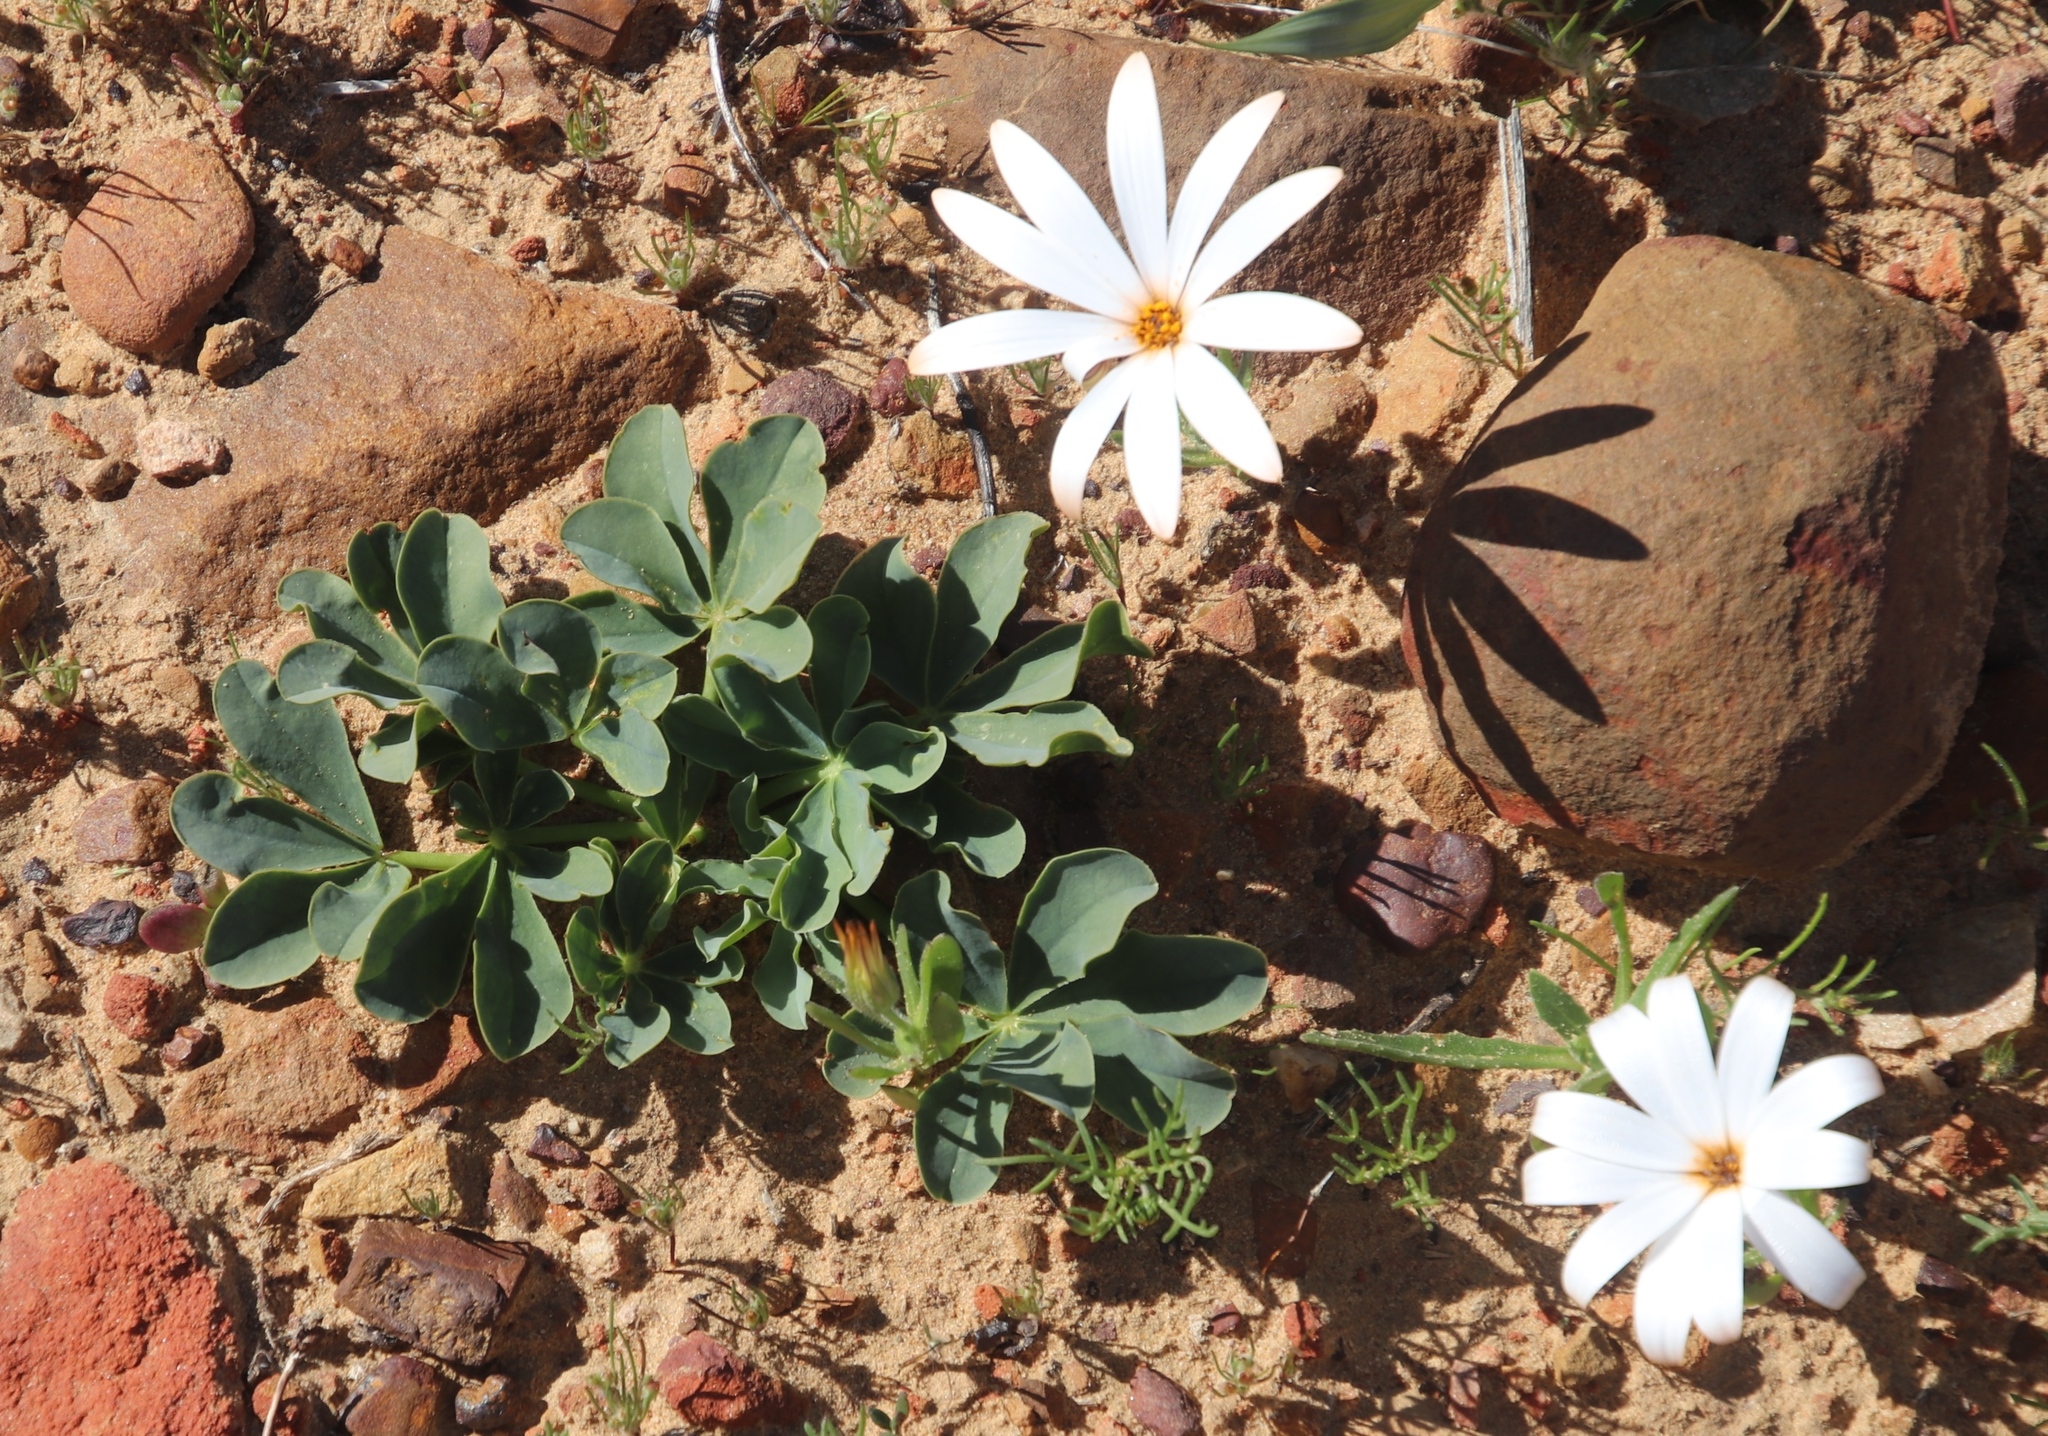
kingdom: Plantae
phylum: Tracheophyta
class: Magnoliopsida
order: Oxalidales
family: Oxalidaceae
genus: Oxalis
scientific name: Oxalis flava
